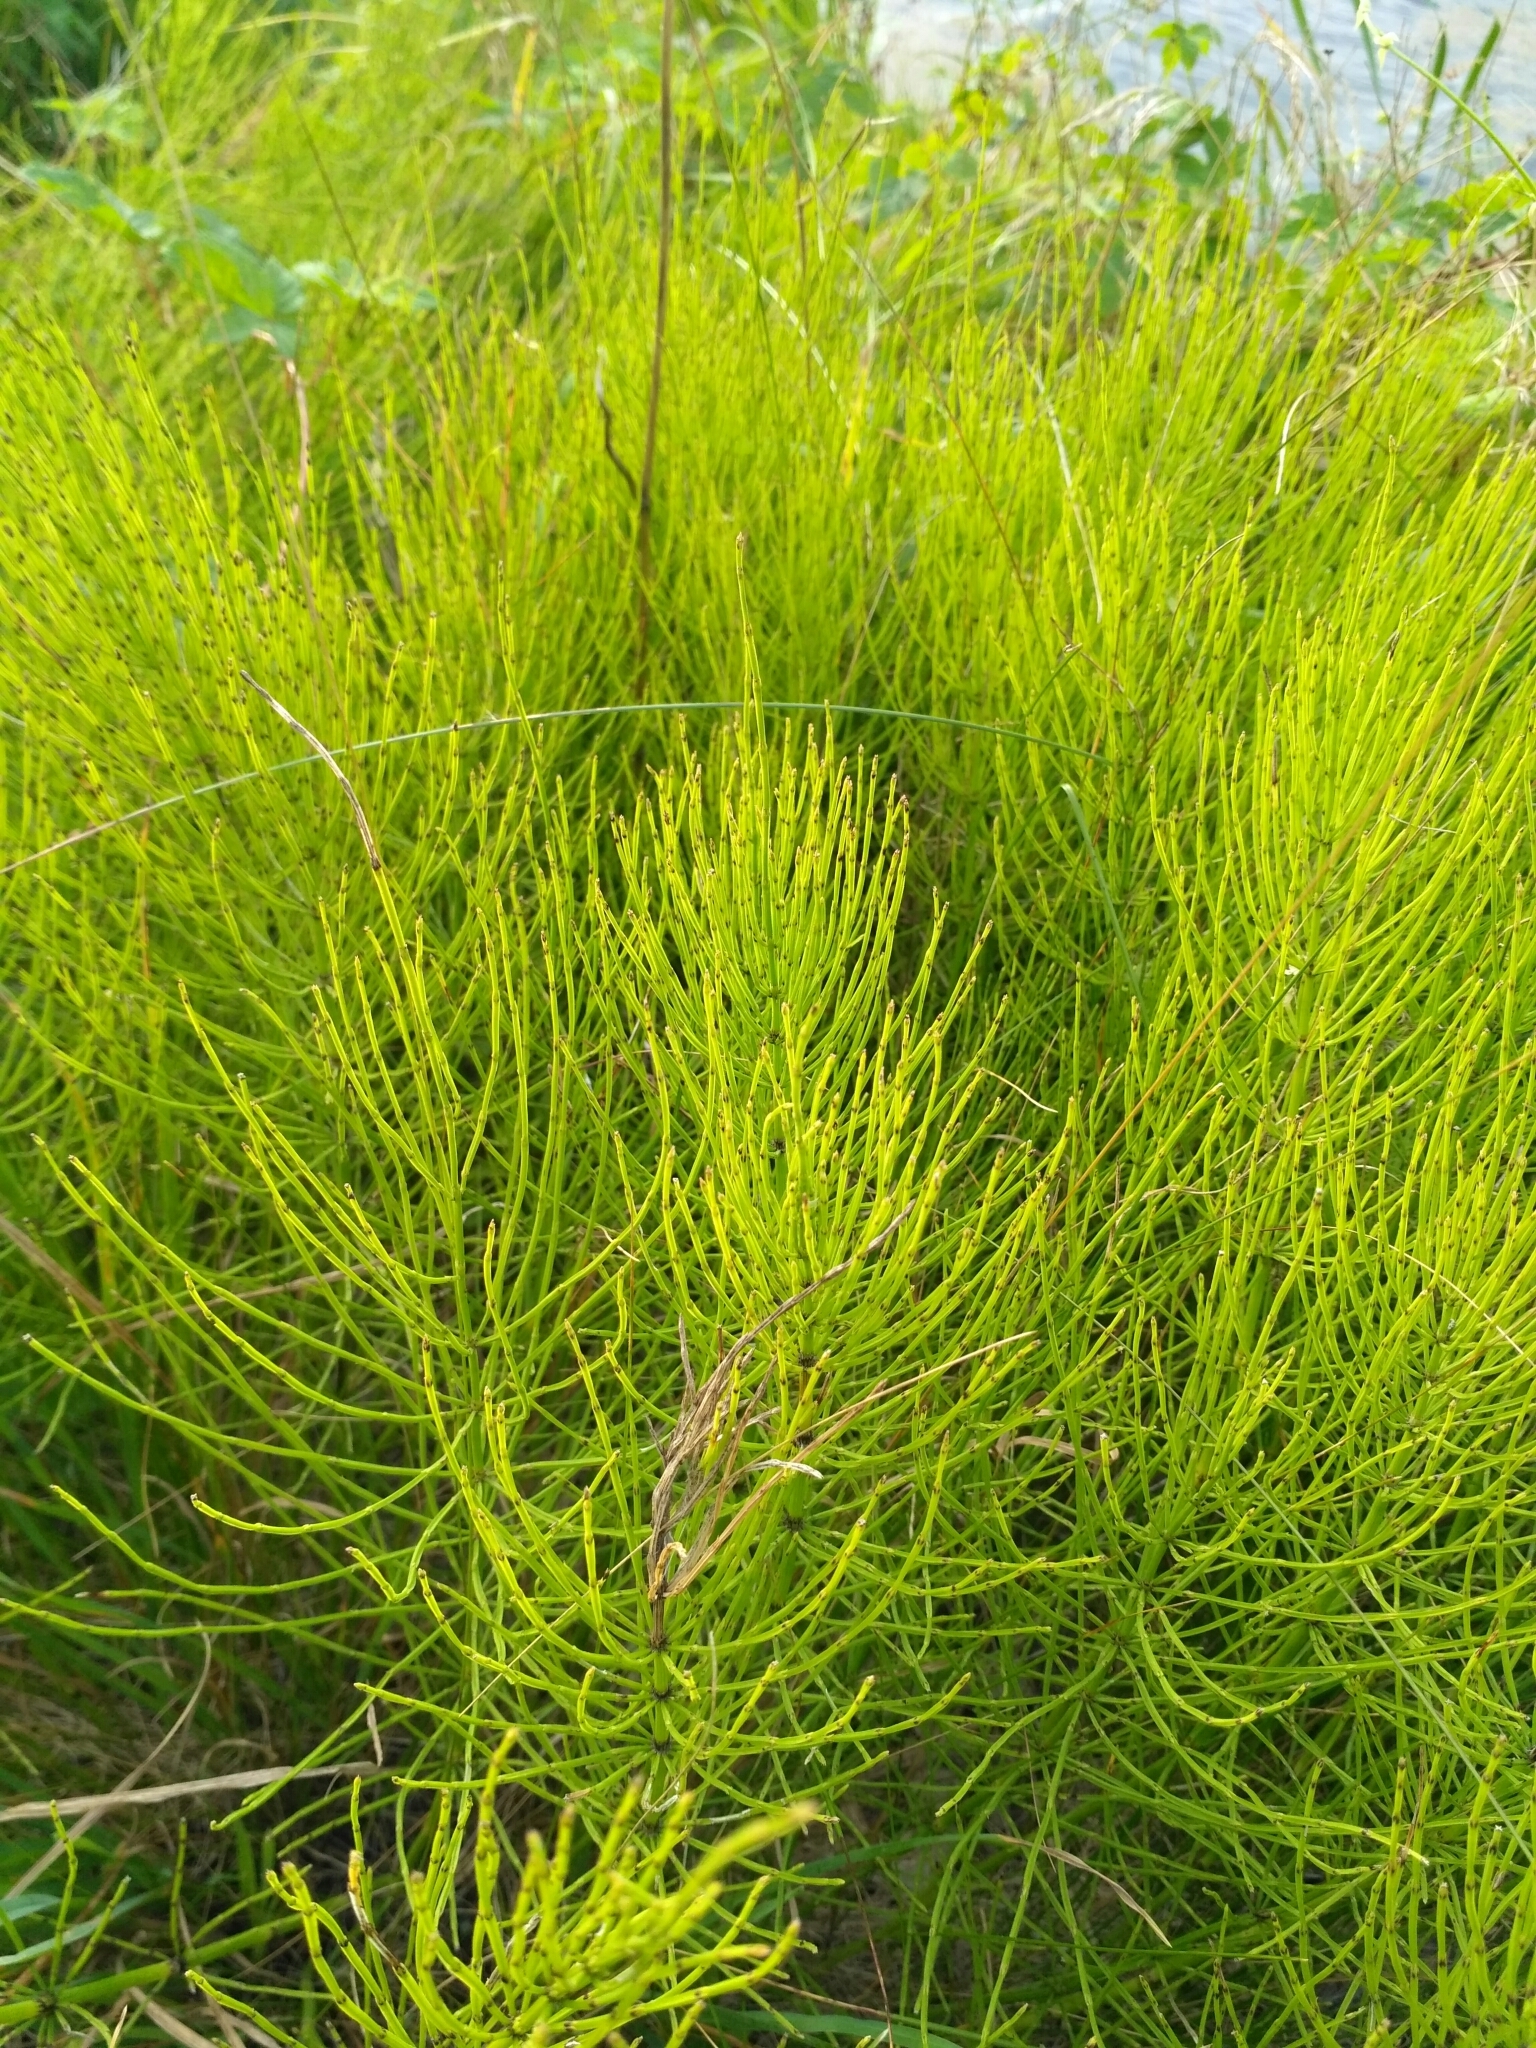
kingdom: Plantae
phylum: Tracheophyta
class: Polypodiopsida
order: Equisetales
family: Equisetaceae
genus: Equisetum
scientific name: Equisetum arvense
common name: Field horsetail
